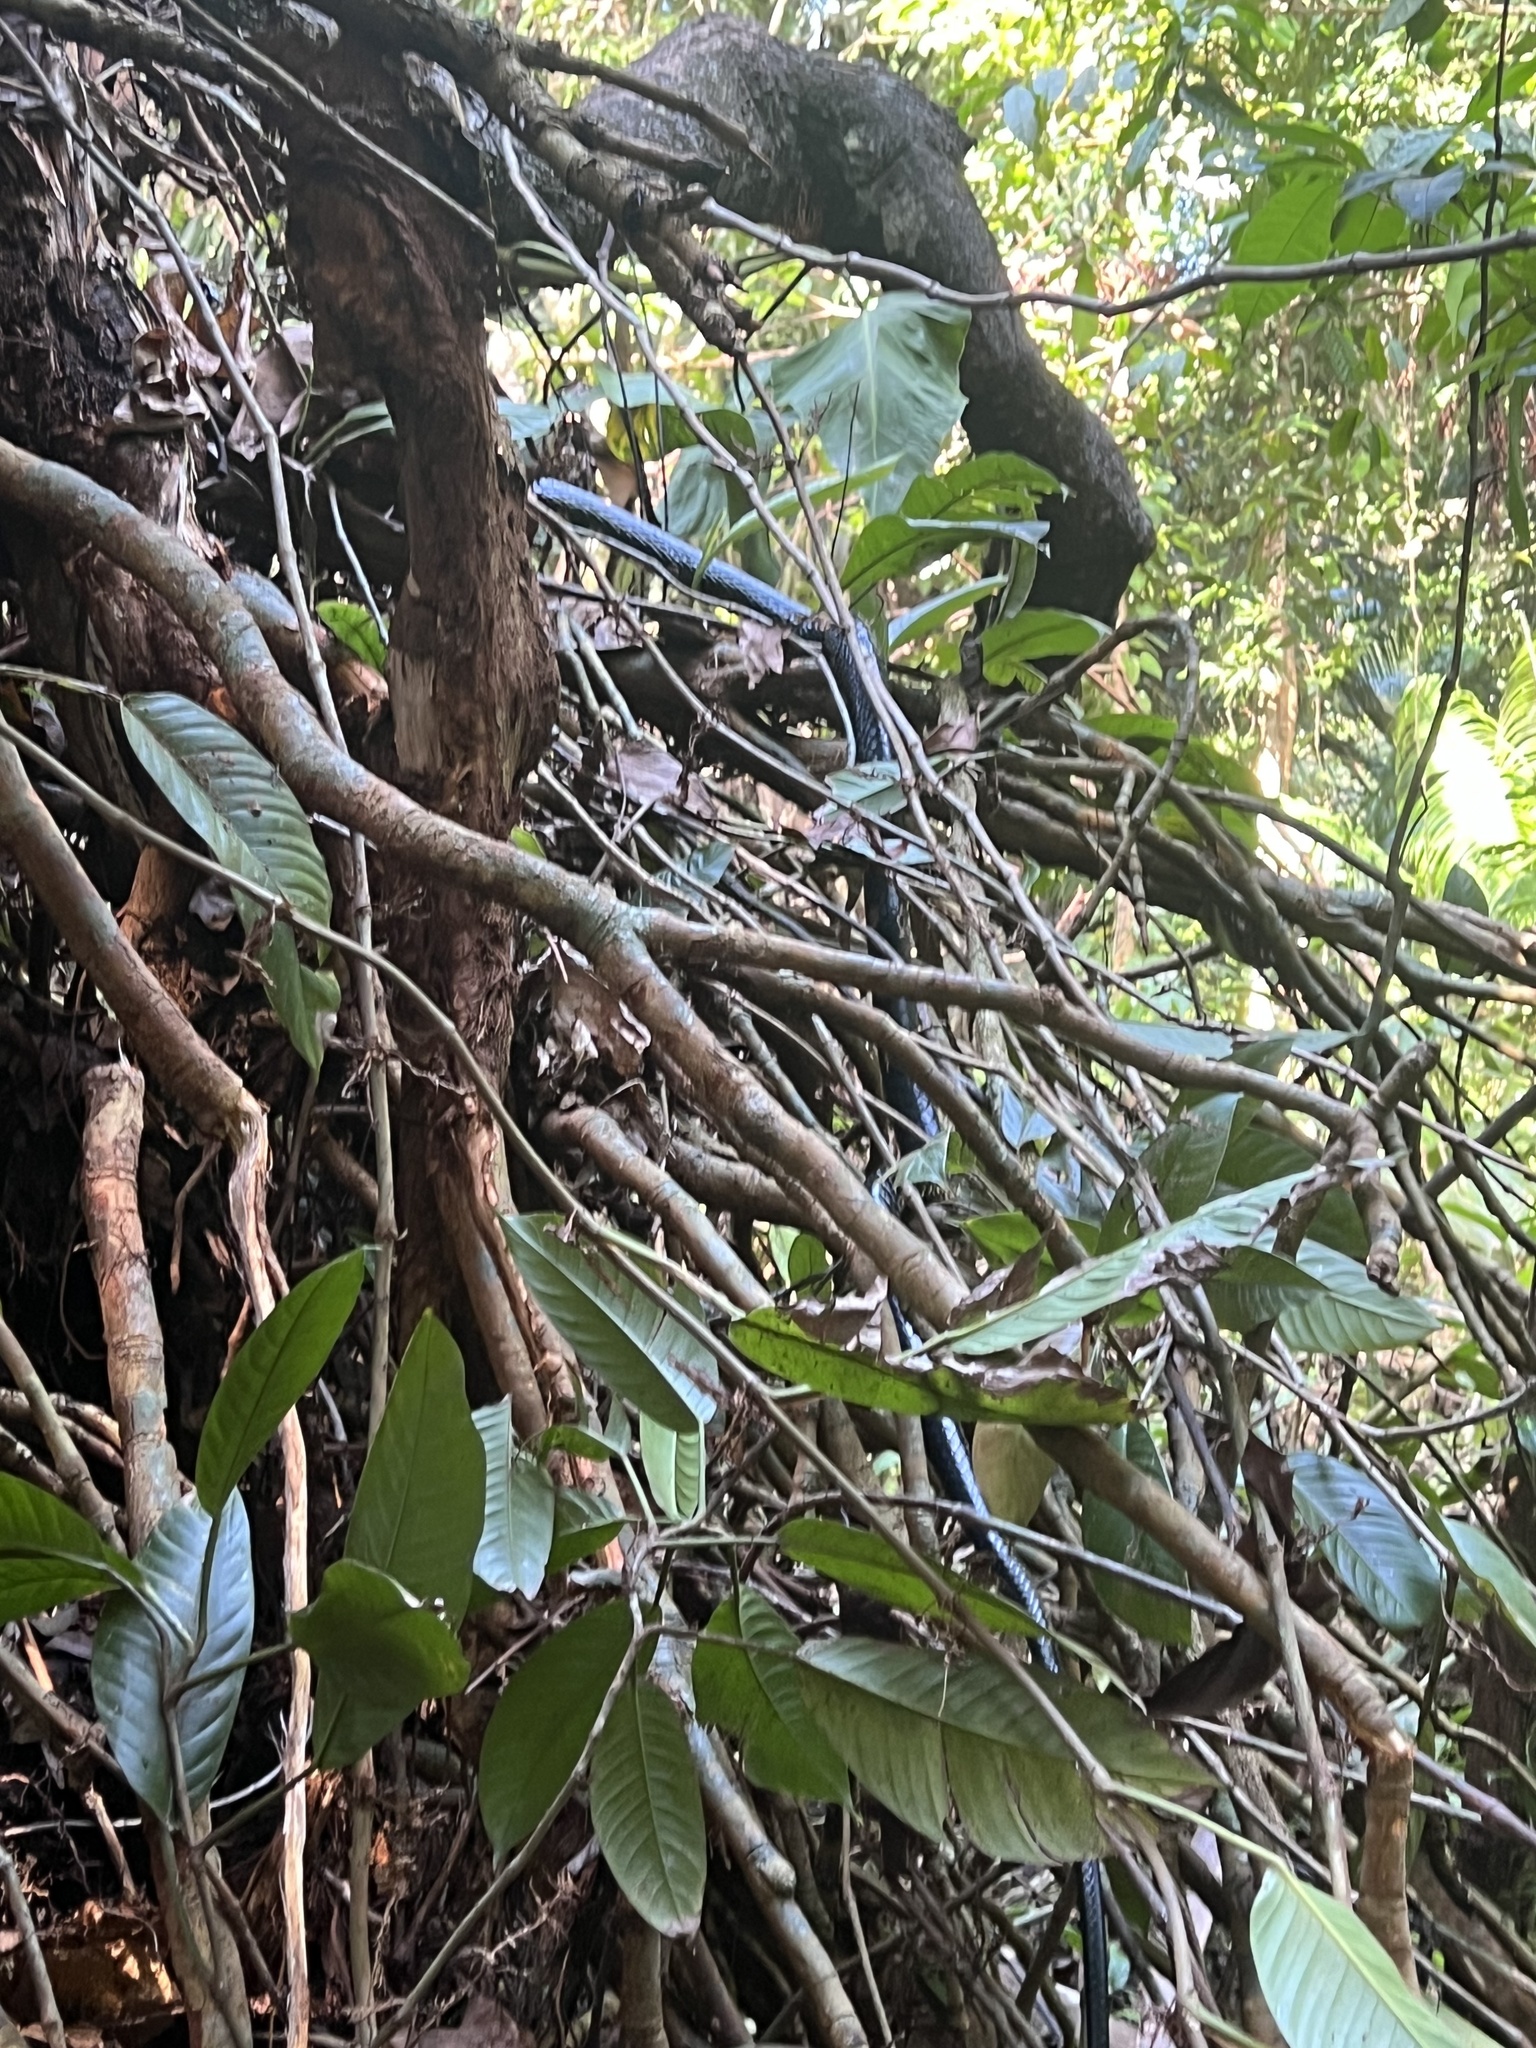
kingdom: Animalia
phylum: Chordata
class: Squamata
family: Colubridae
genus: Spilotes
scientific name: Spilotes pullatus
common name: Chicken snake
